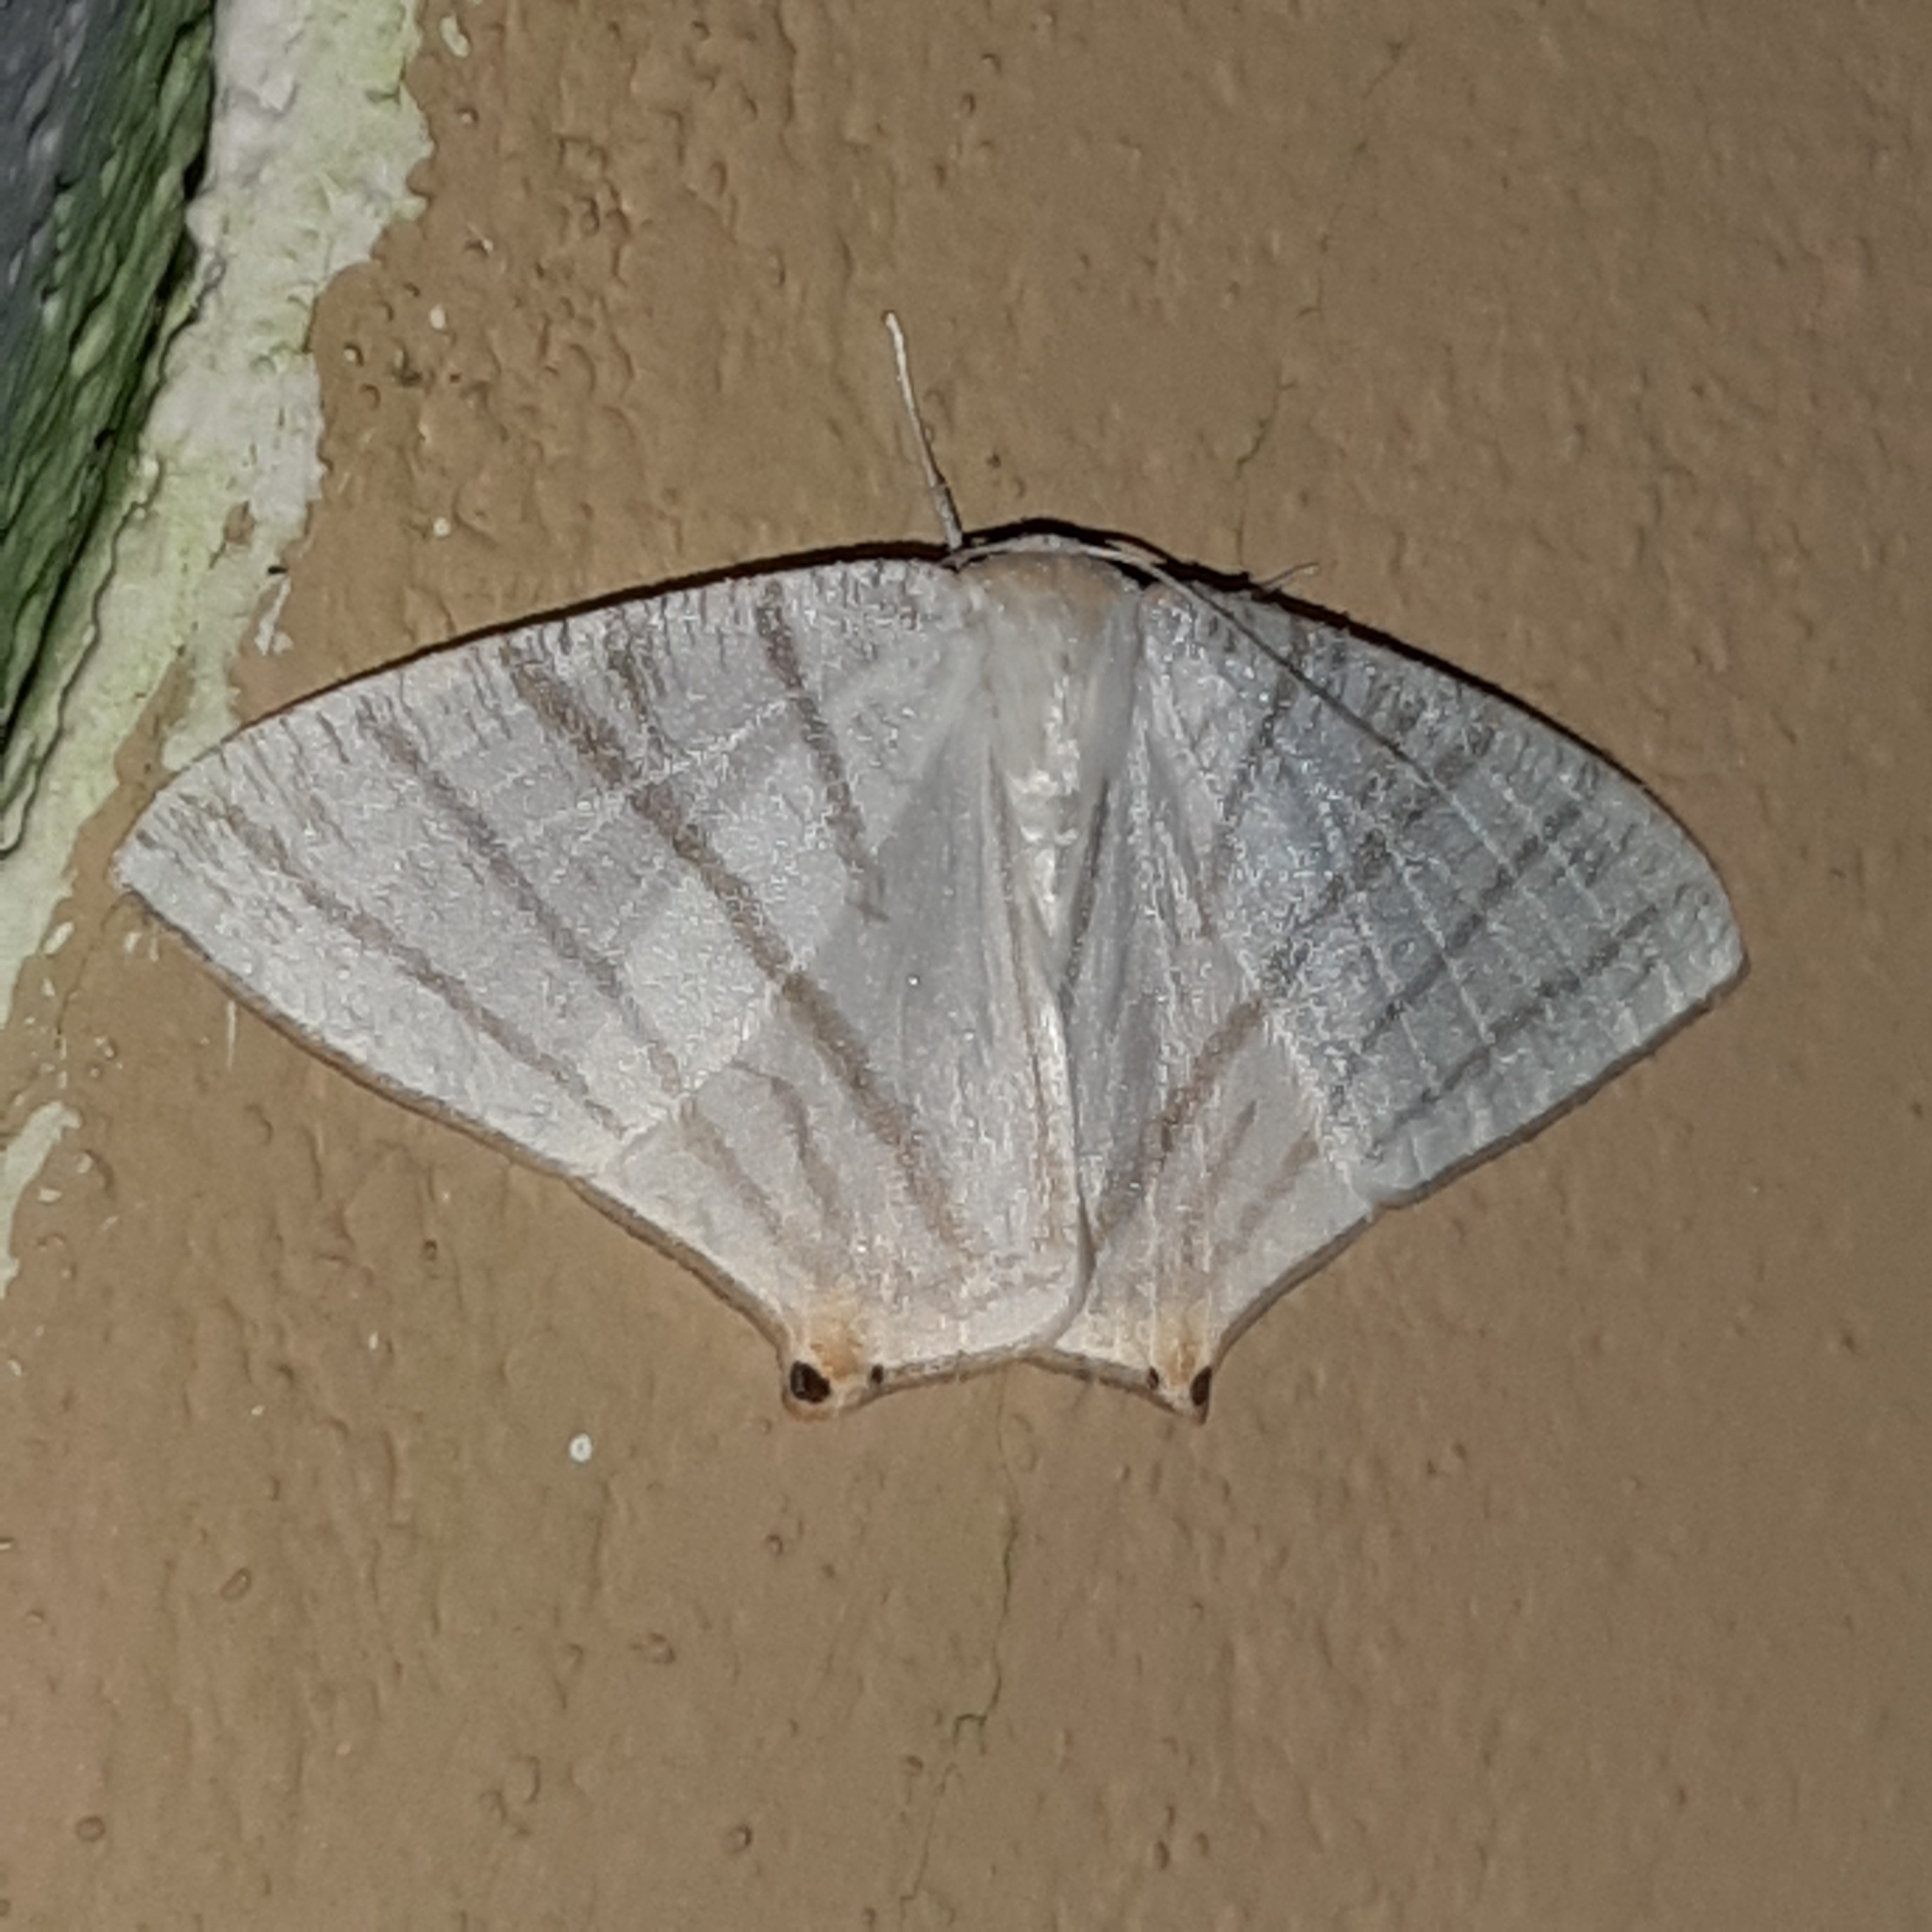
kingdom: Animalia
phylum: Arthropoda
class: Insecta
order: Lepidoptera
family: Geometridae
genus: Brachurapteryx
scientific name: Brachurapteryx tesserata
